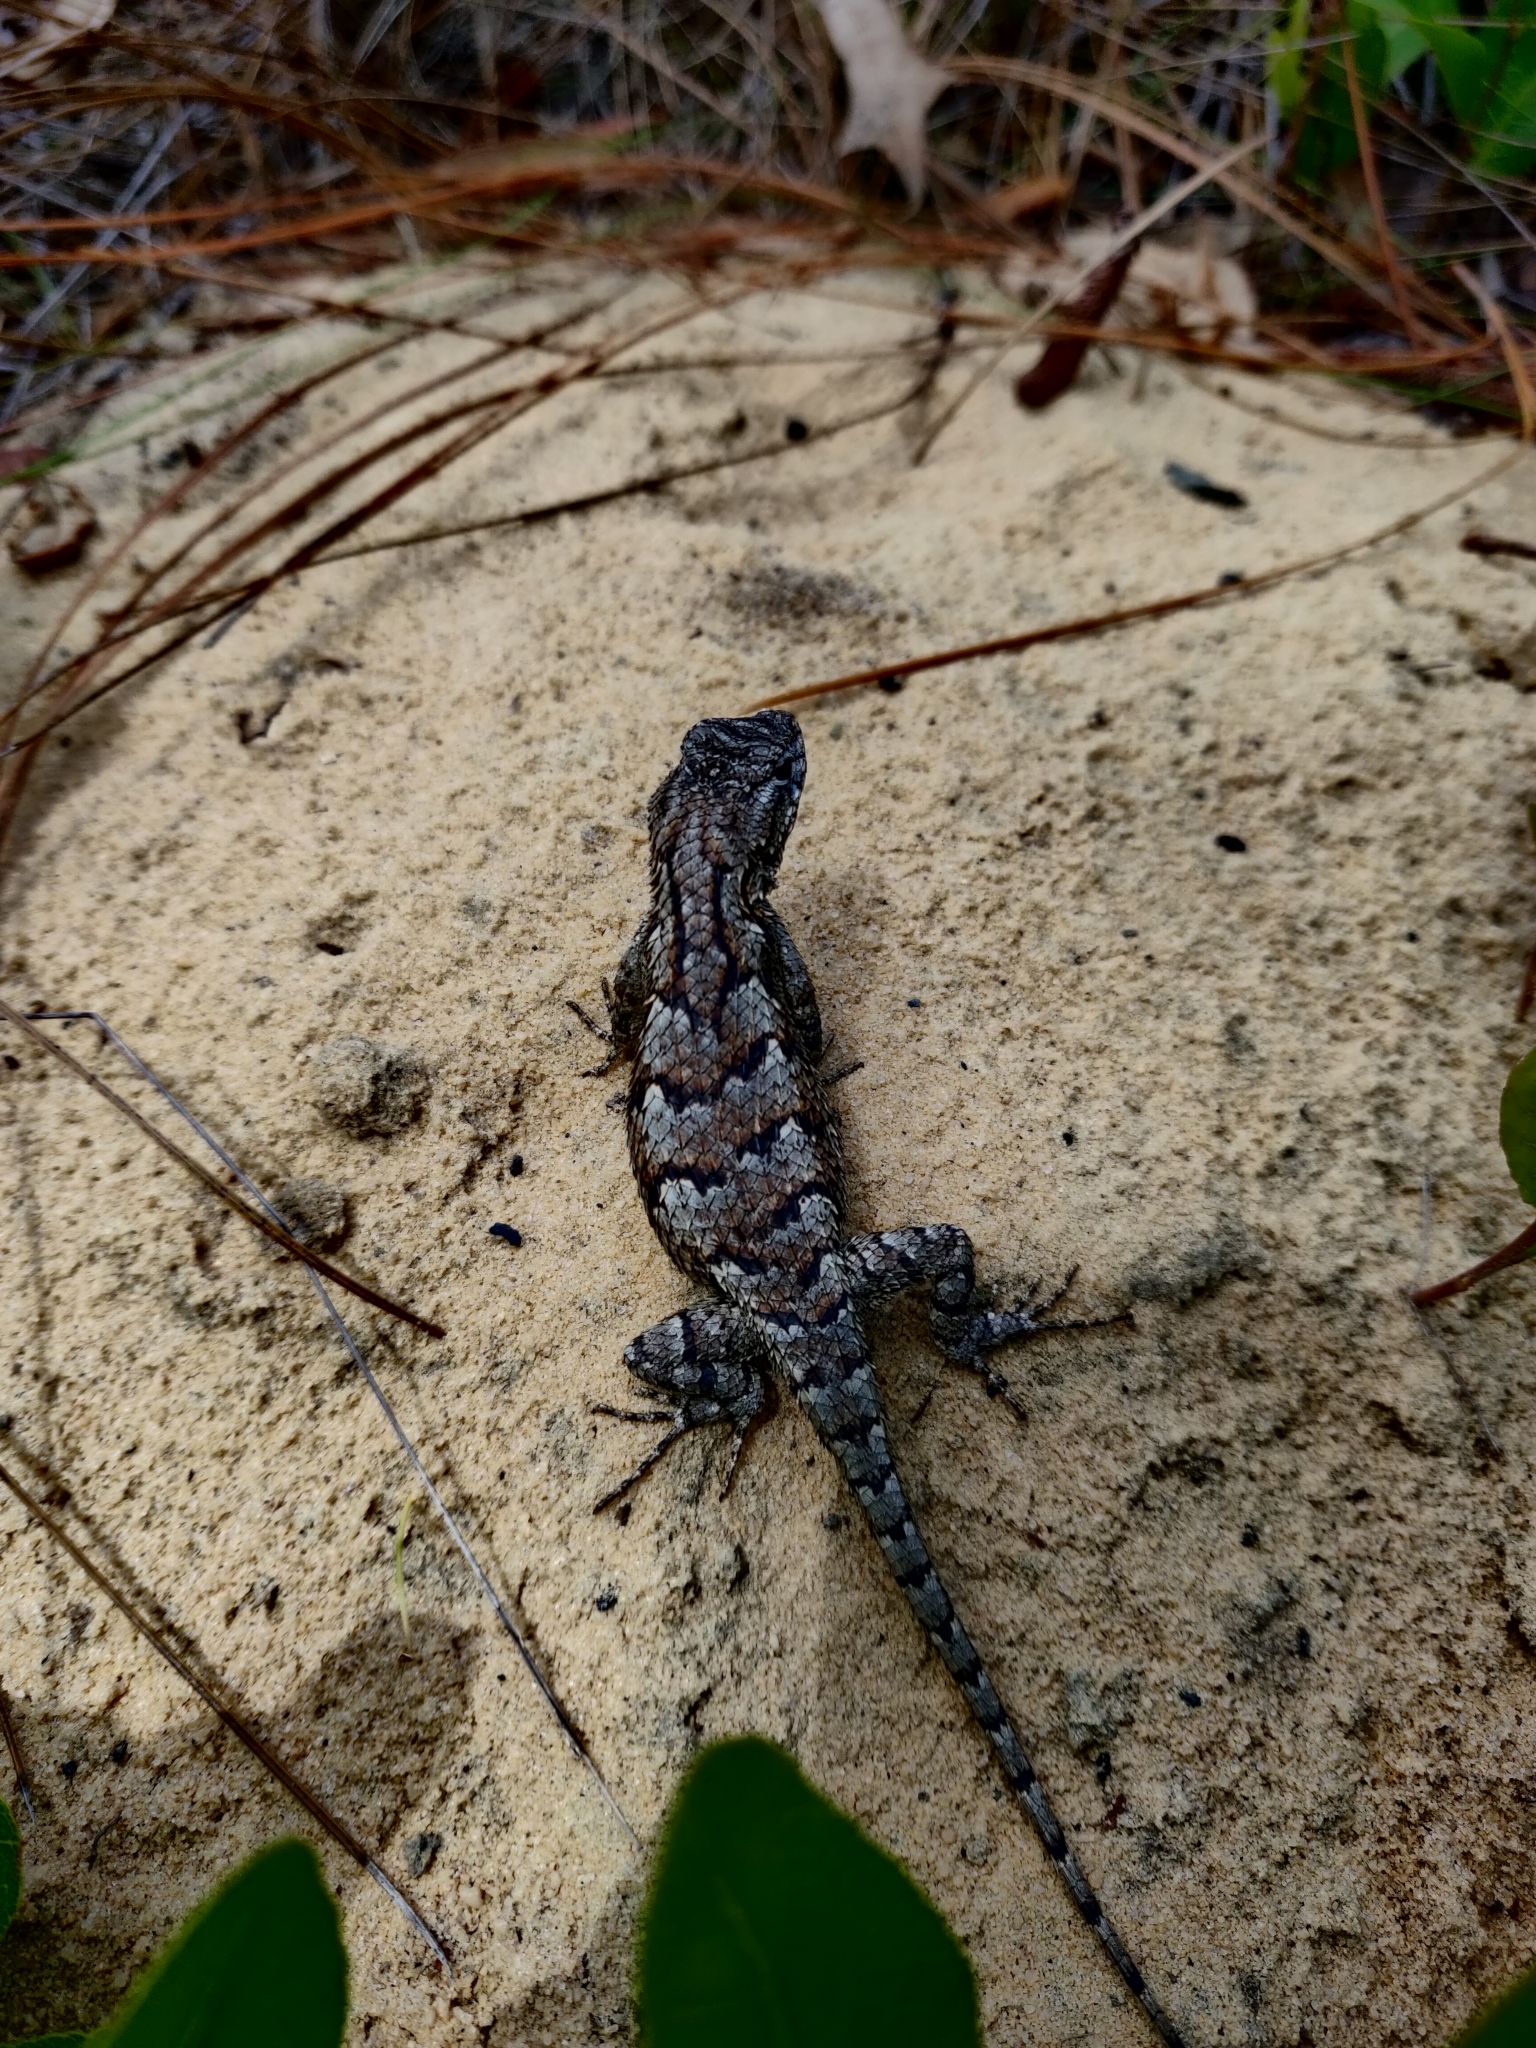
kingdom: Animalia
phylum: Chordata
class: Squamata
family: Phrynosomatidae
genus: Sceloporus
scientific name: Sceloporus undulatus
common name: Eastern fence lizard
